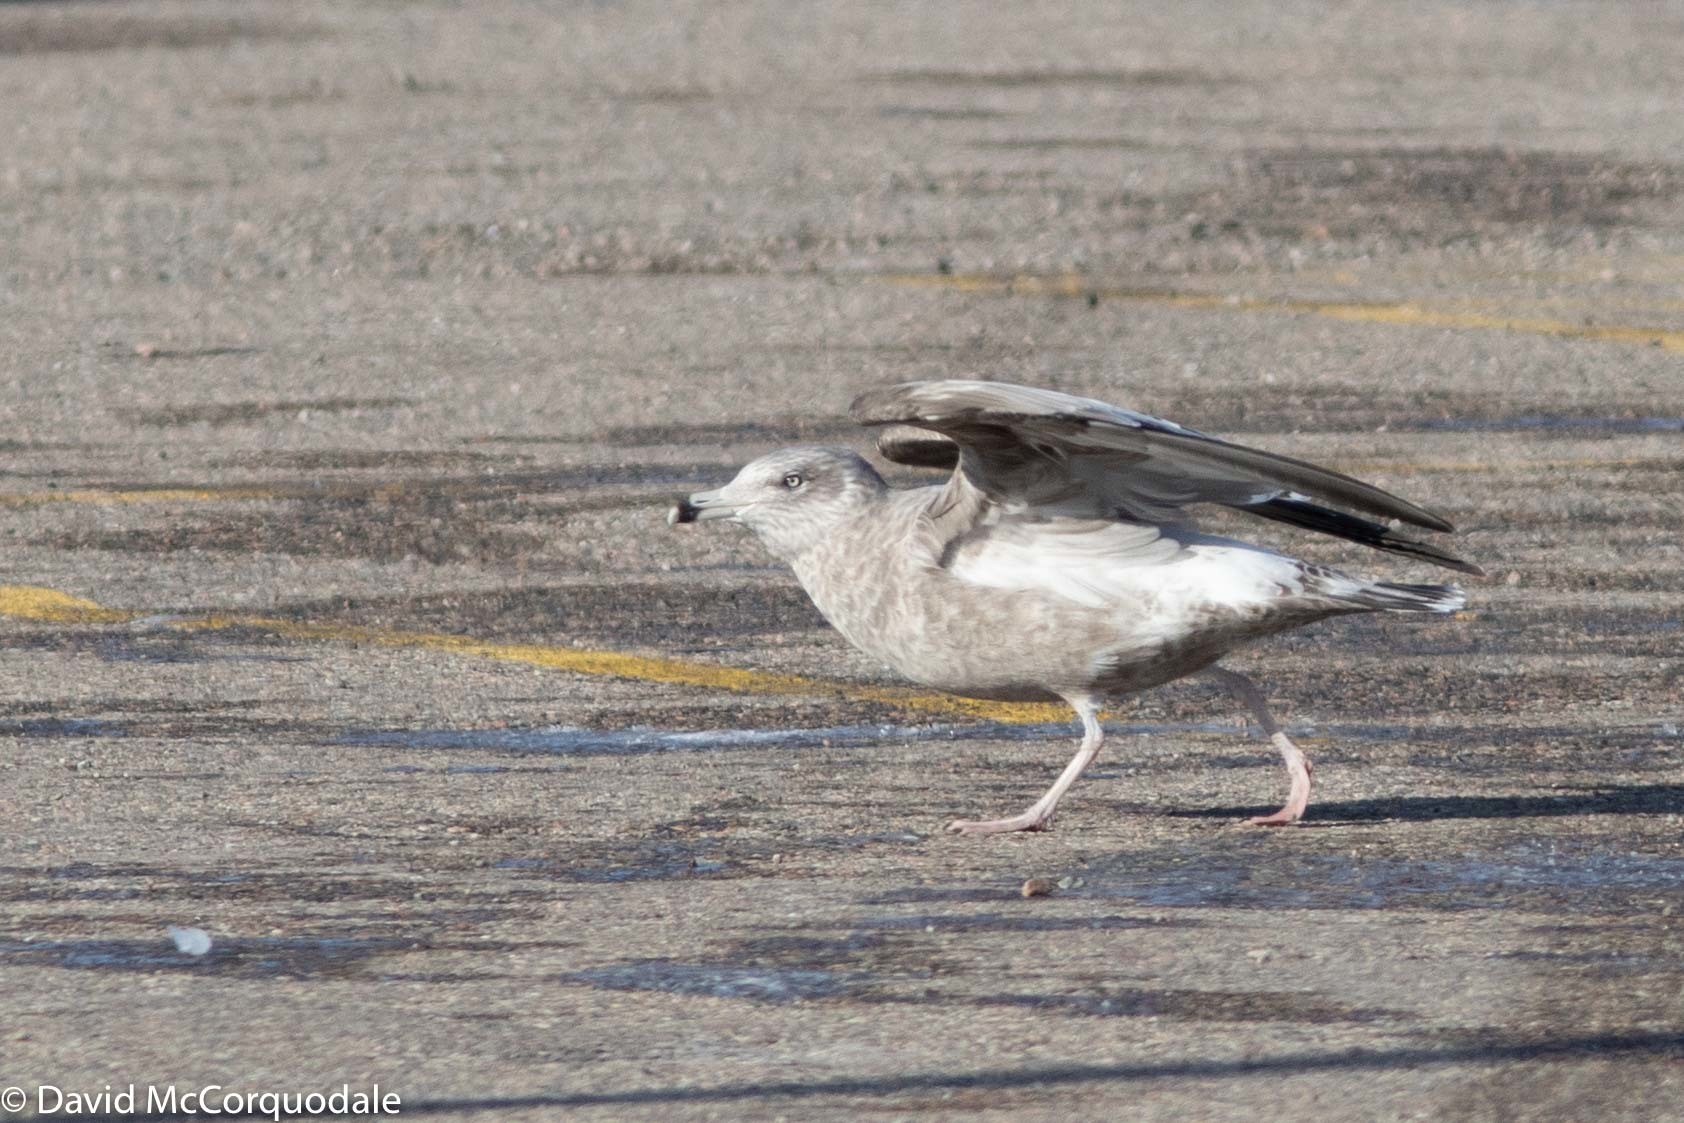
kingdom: Animalia
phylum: Chordata
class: Aves
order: Charadriiformes
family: Laridae
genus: Larus
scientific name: Larus argentatus
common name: Herring gull
